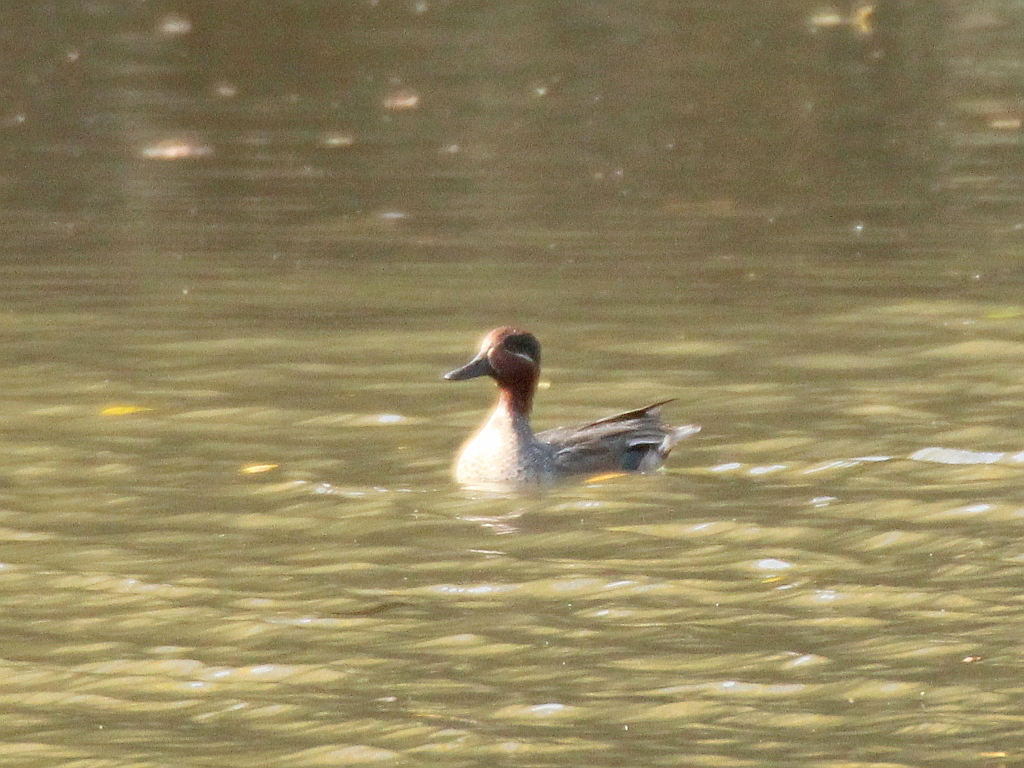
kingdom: Animalia
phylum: Chordata
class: Aves
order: Anseriformes
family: Anatidae
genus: Anas
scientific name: Anas crecca
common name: Eurasian teal
